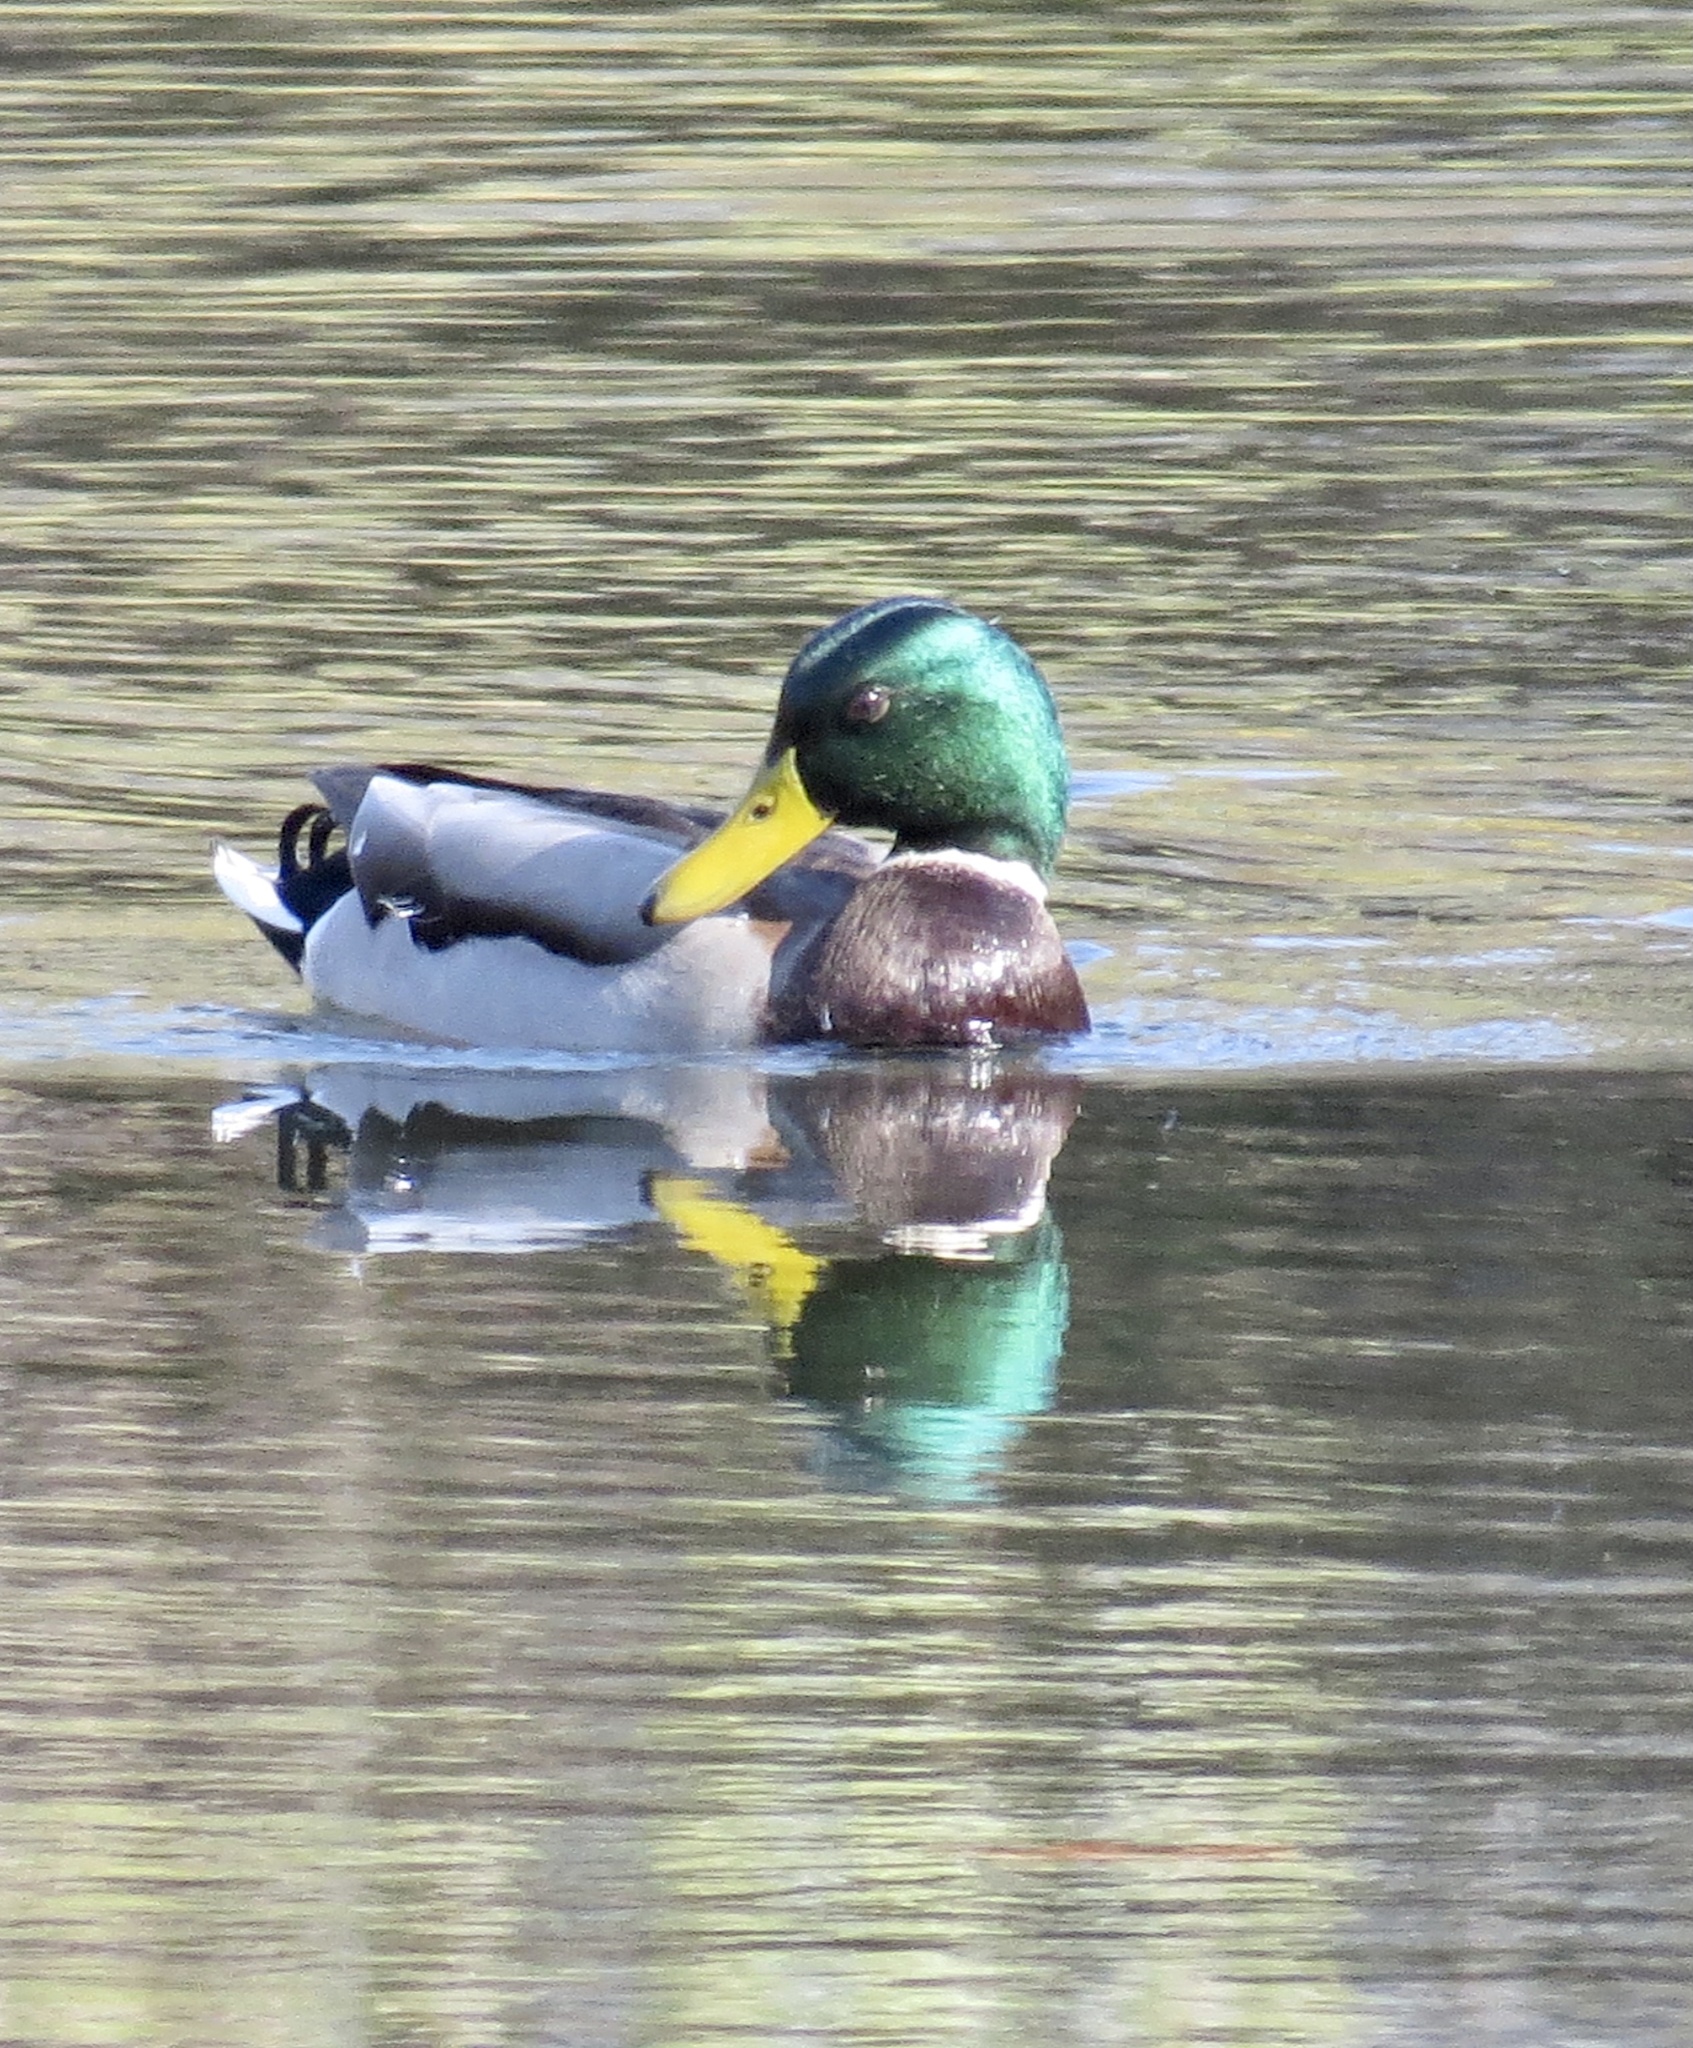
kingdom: Animalia
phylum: Chordata
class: Aves
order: Anseriformes
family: Anatidae
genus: Anas
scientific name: Anas platyrhynchos
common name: Mallard
